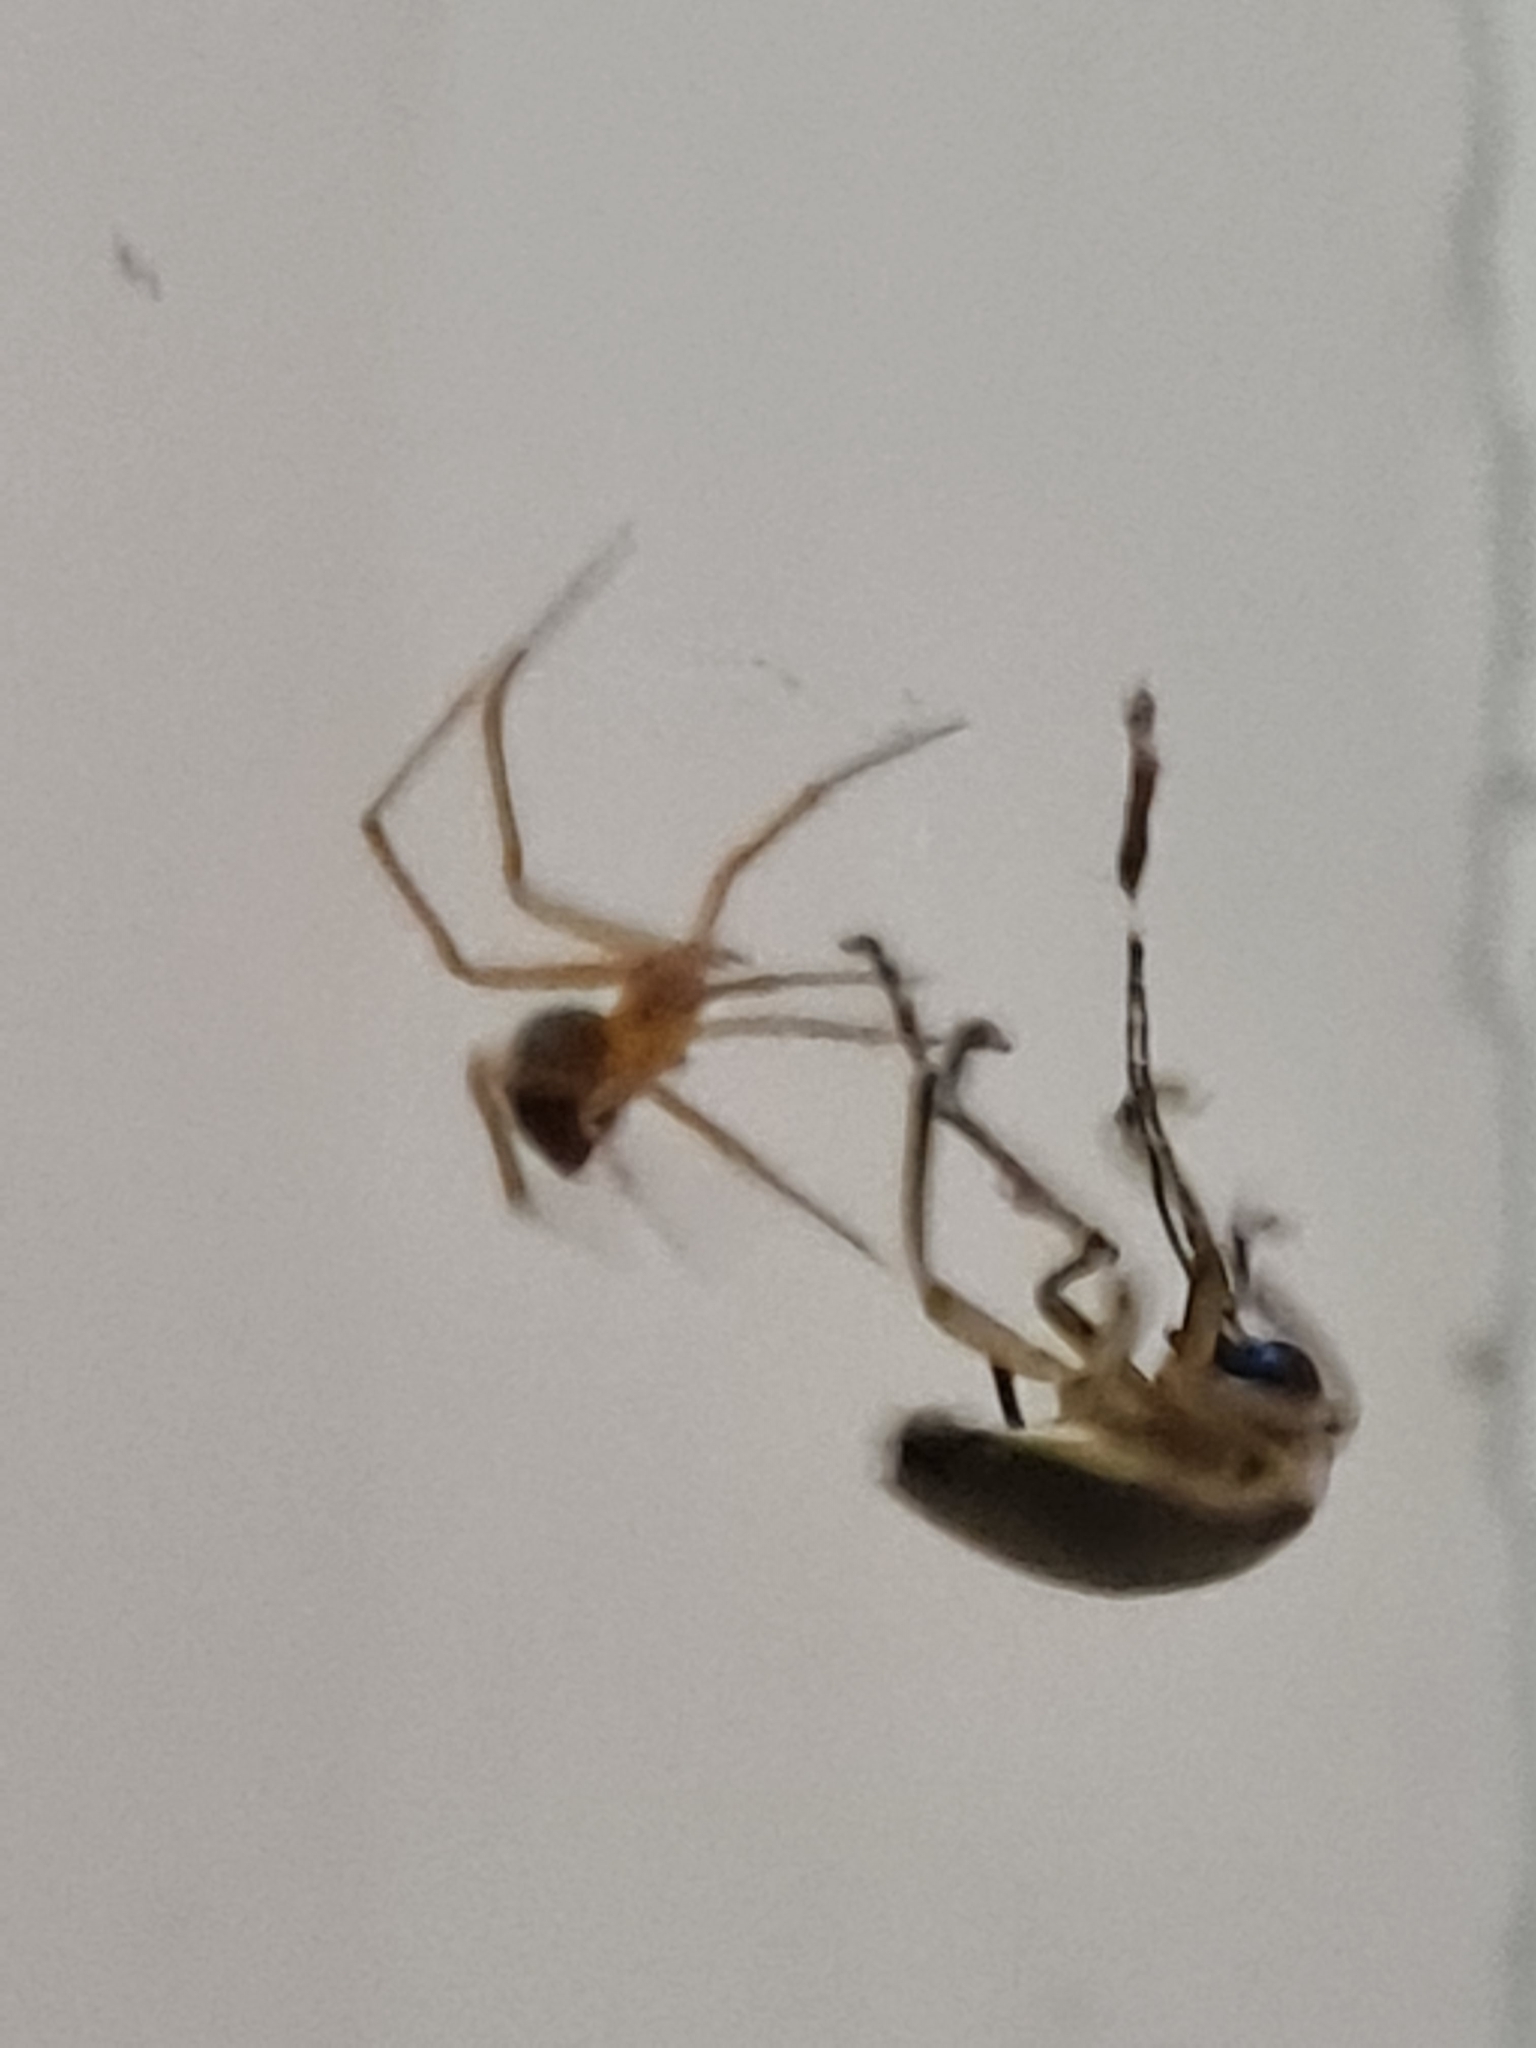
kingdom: Animalia
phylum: Arthropoda
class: Arachnida
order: Araneae
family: Theridiidae
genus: Nesticodes
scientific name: Nesticodes rufipes
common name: Cobweb spiders
